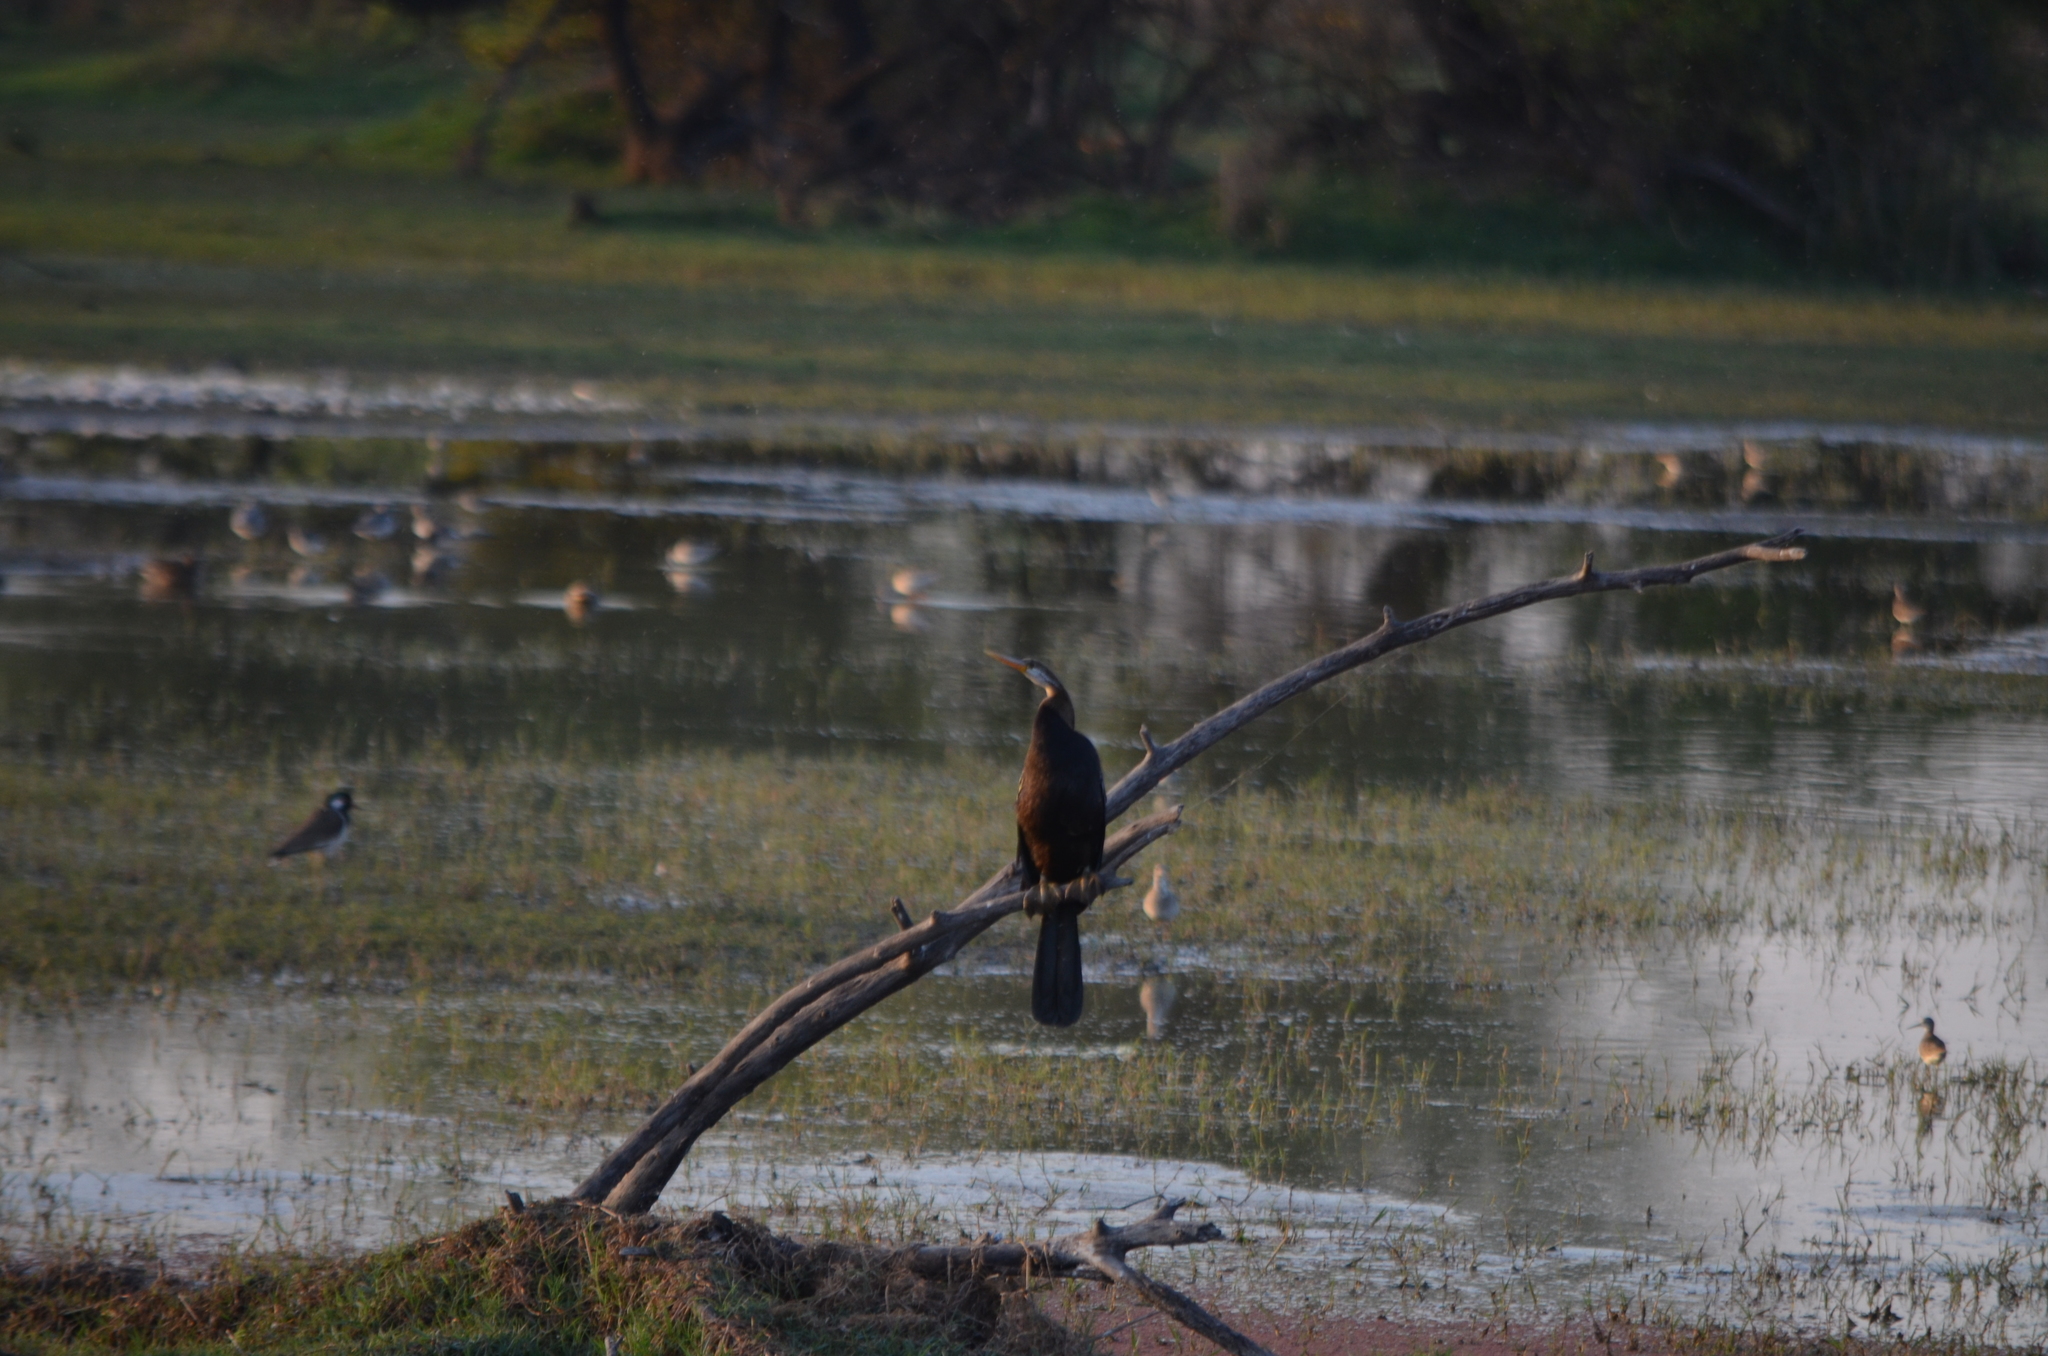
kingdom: Animalia
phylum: Chordata
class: Aves
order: Suliformes
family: Anhingidae
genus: Anhinga
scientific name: Anhinga melanogaster
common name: Oriental darter
